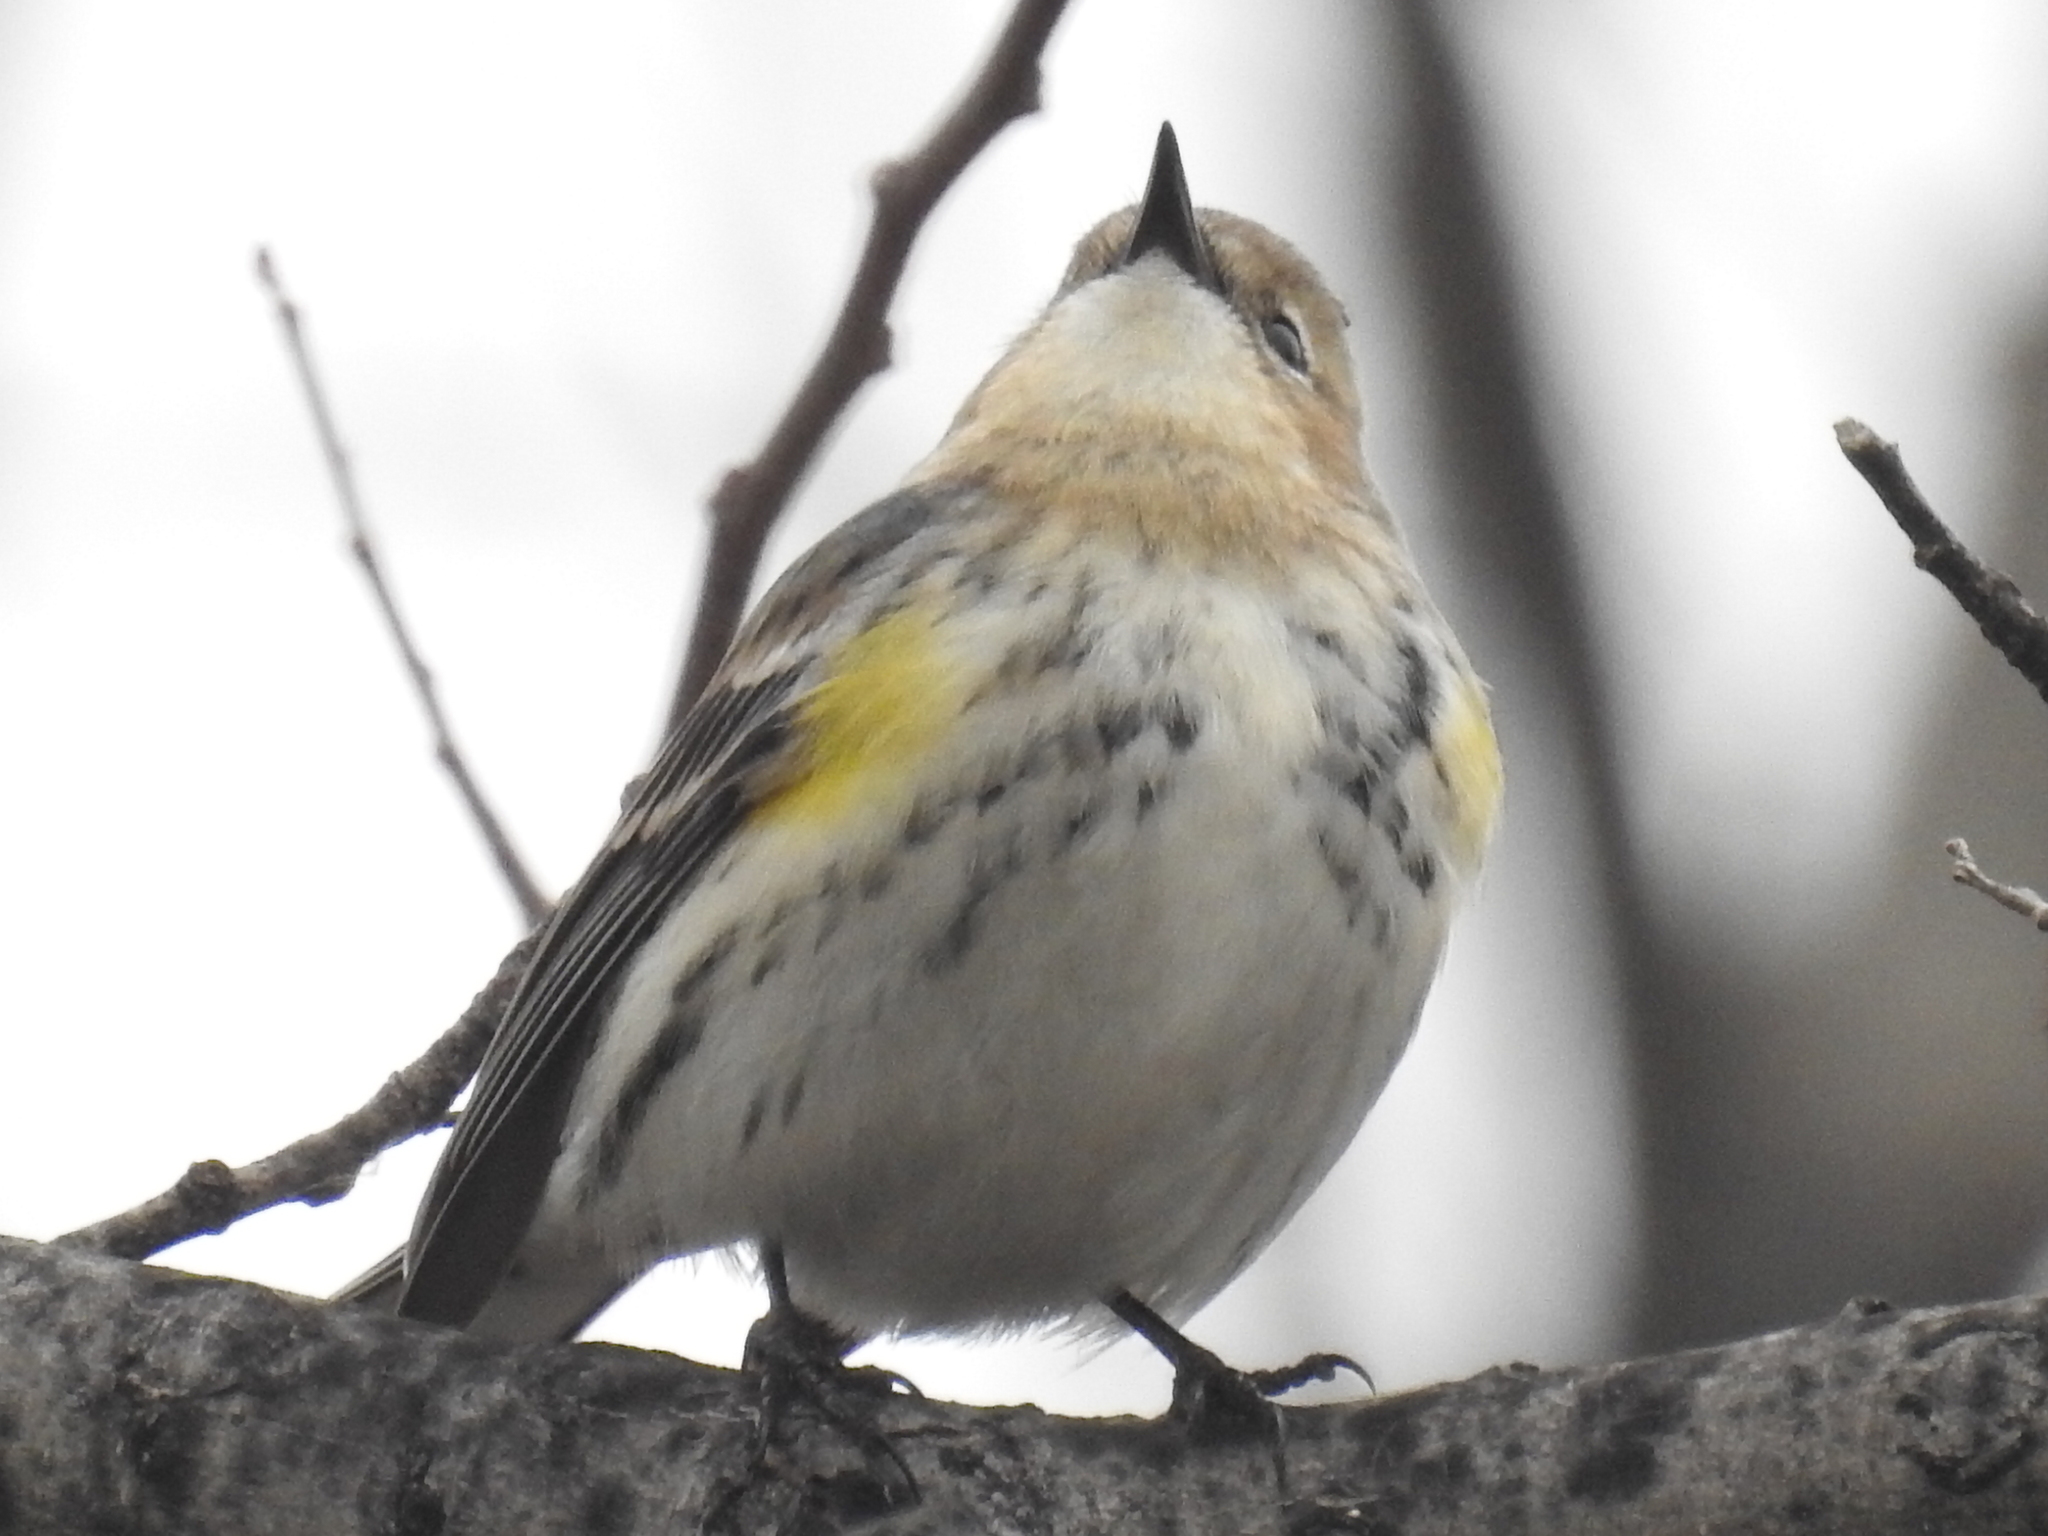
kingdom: Animalia
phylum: Chordata
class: Aves
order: Passeriformes
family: Parulidae
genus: Setophaga
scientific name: Setophaga coronata
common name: Myrtle warbler
